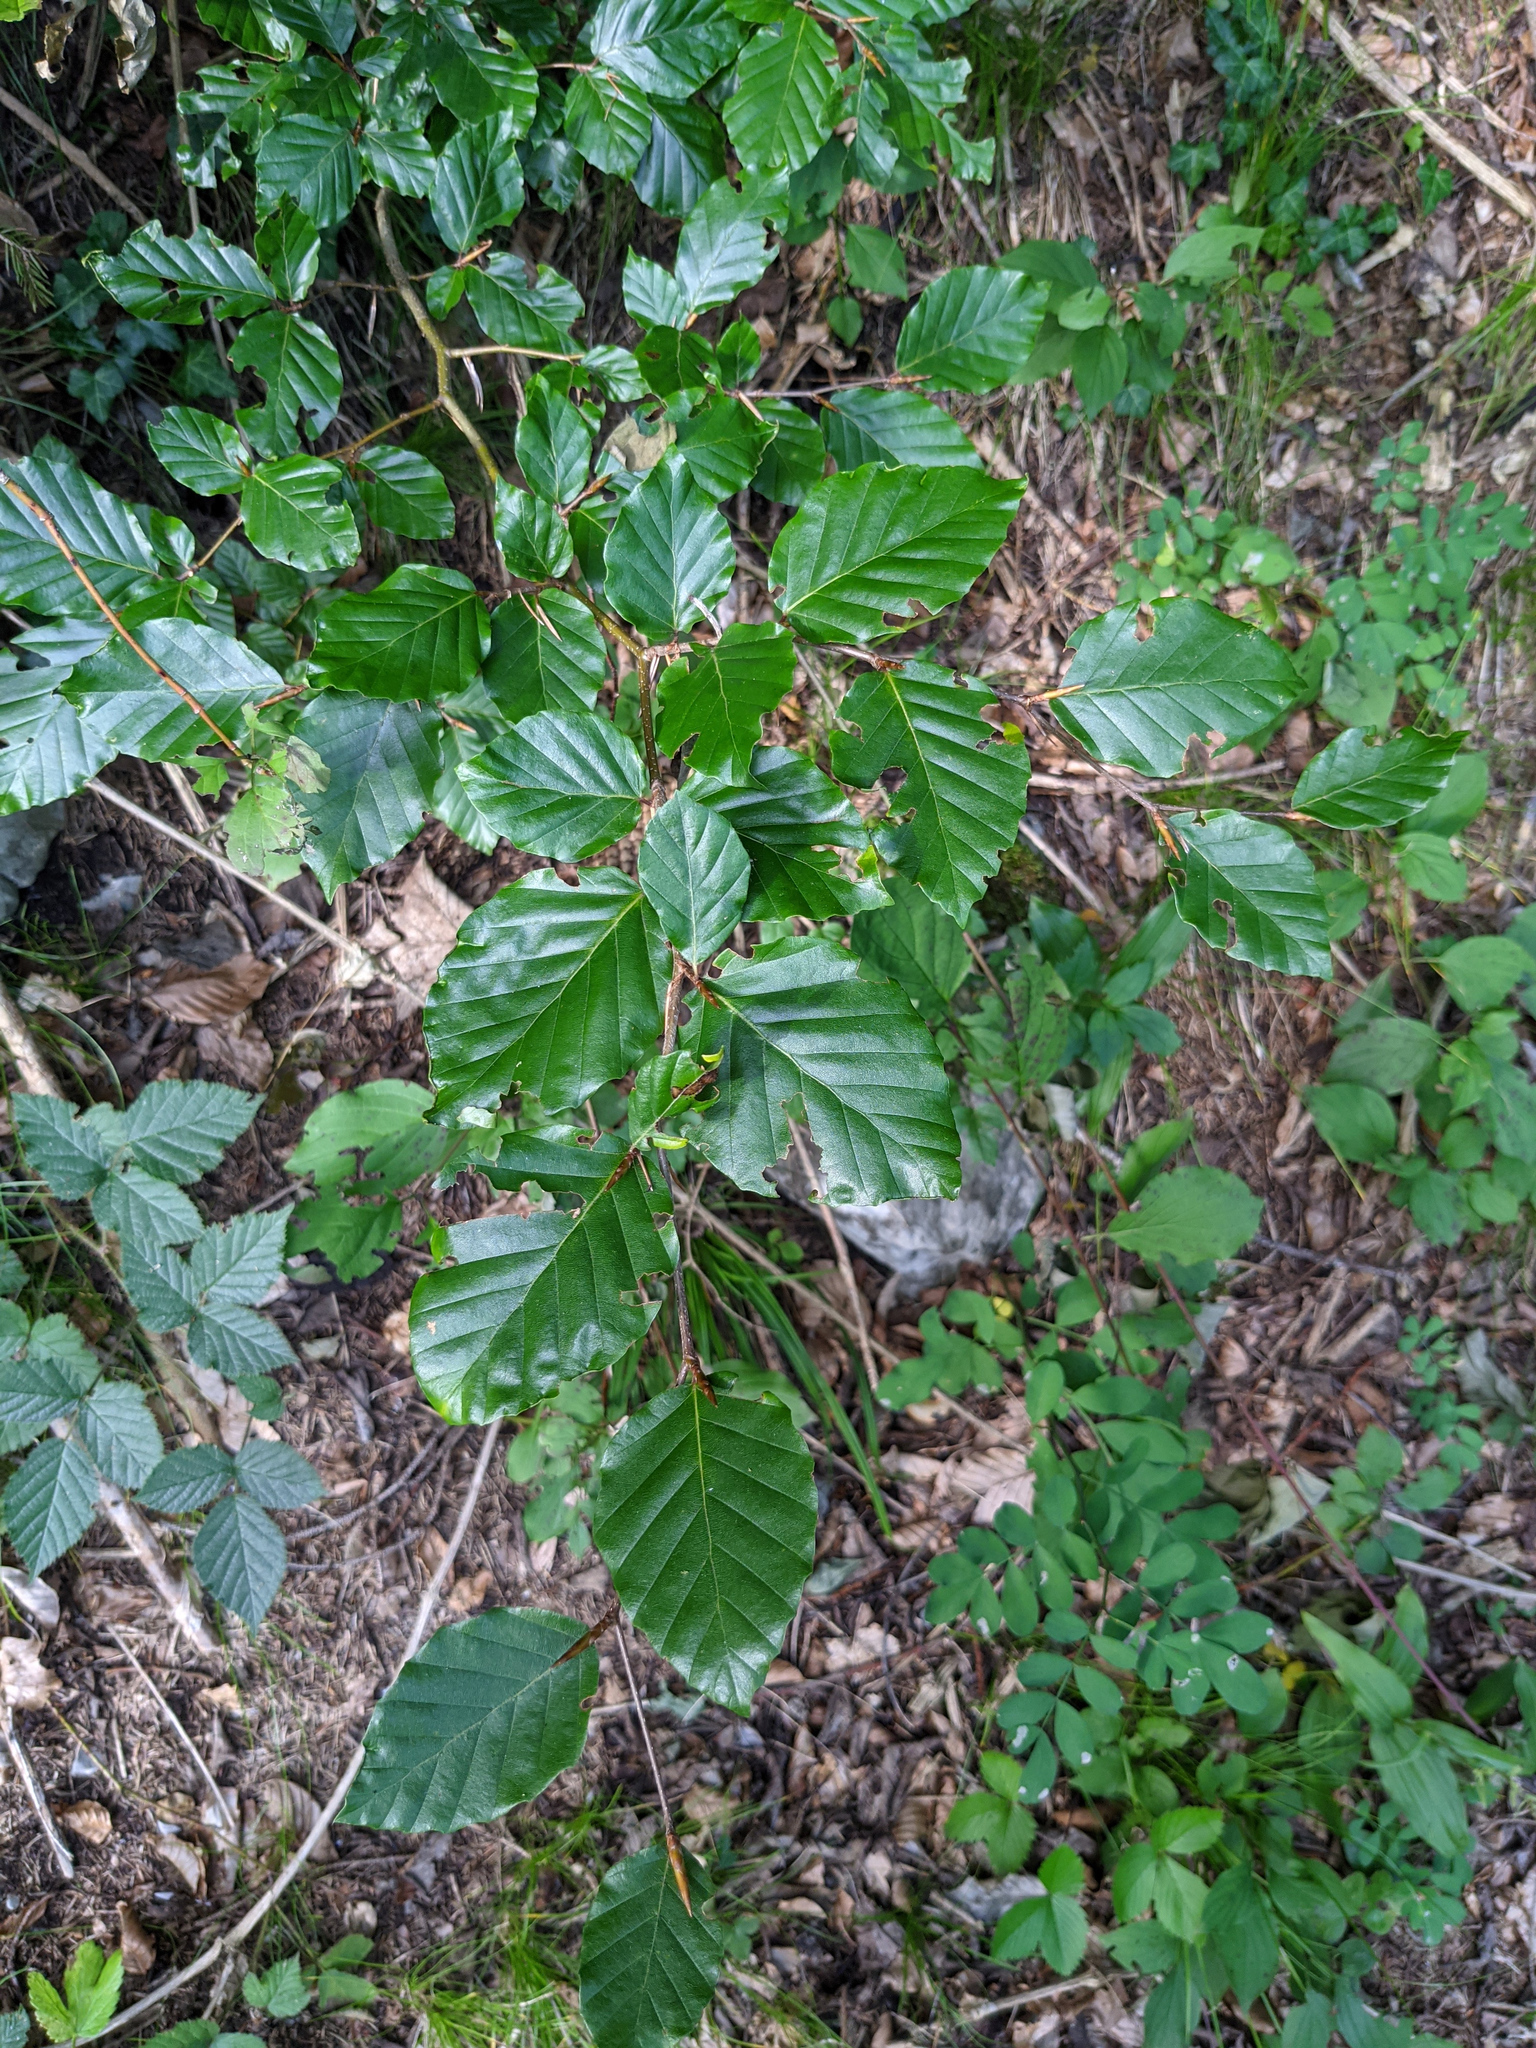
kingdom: Plantae
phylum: Tracheophyta
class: Magnoliopsida
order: Fagales
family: Fagaceae
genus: Fagus
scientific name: Fagus sylvatica
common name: Beech
